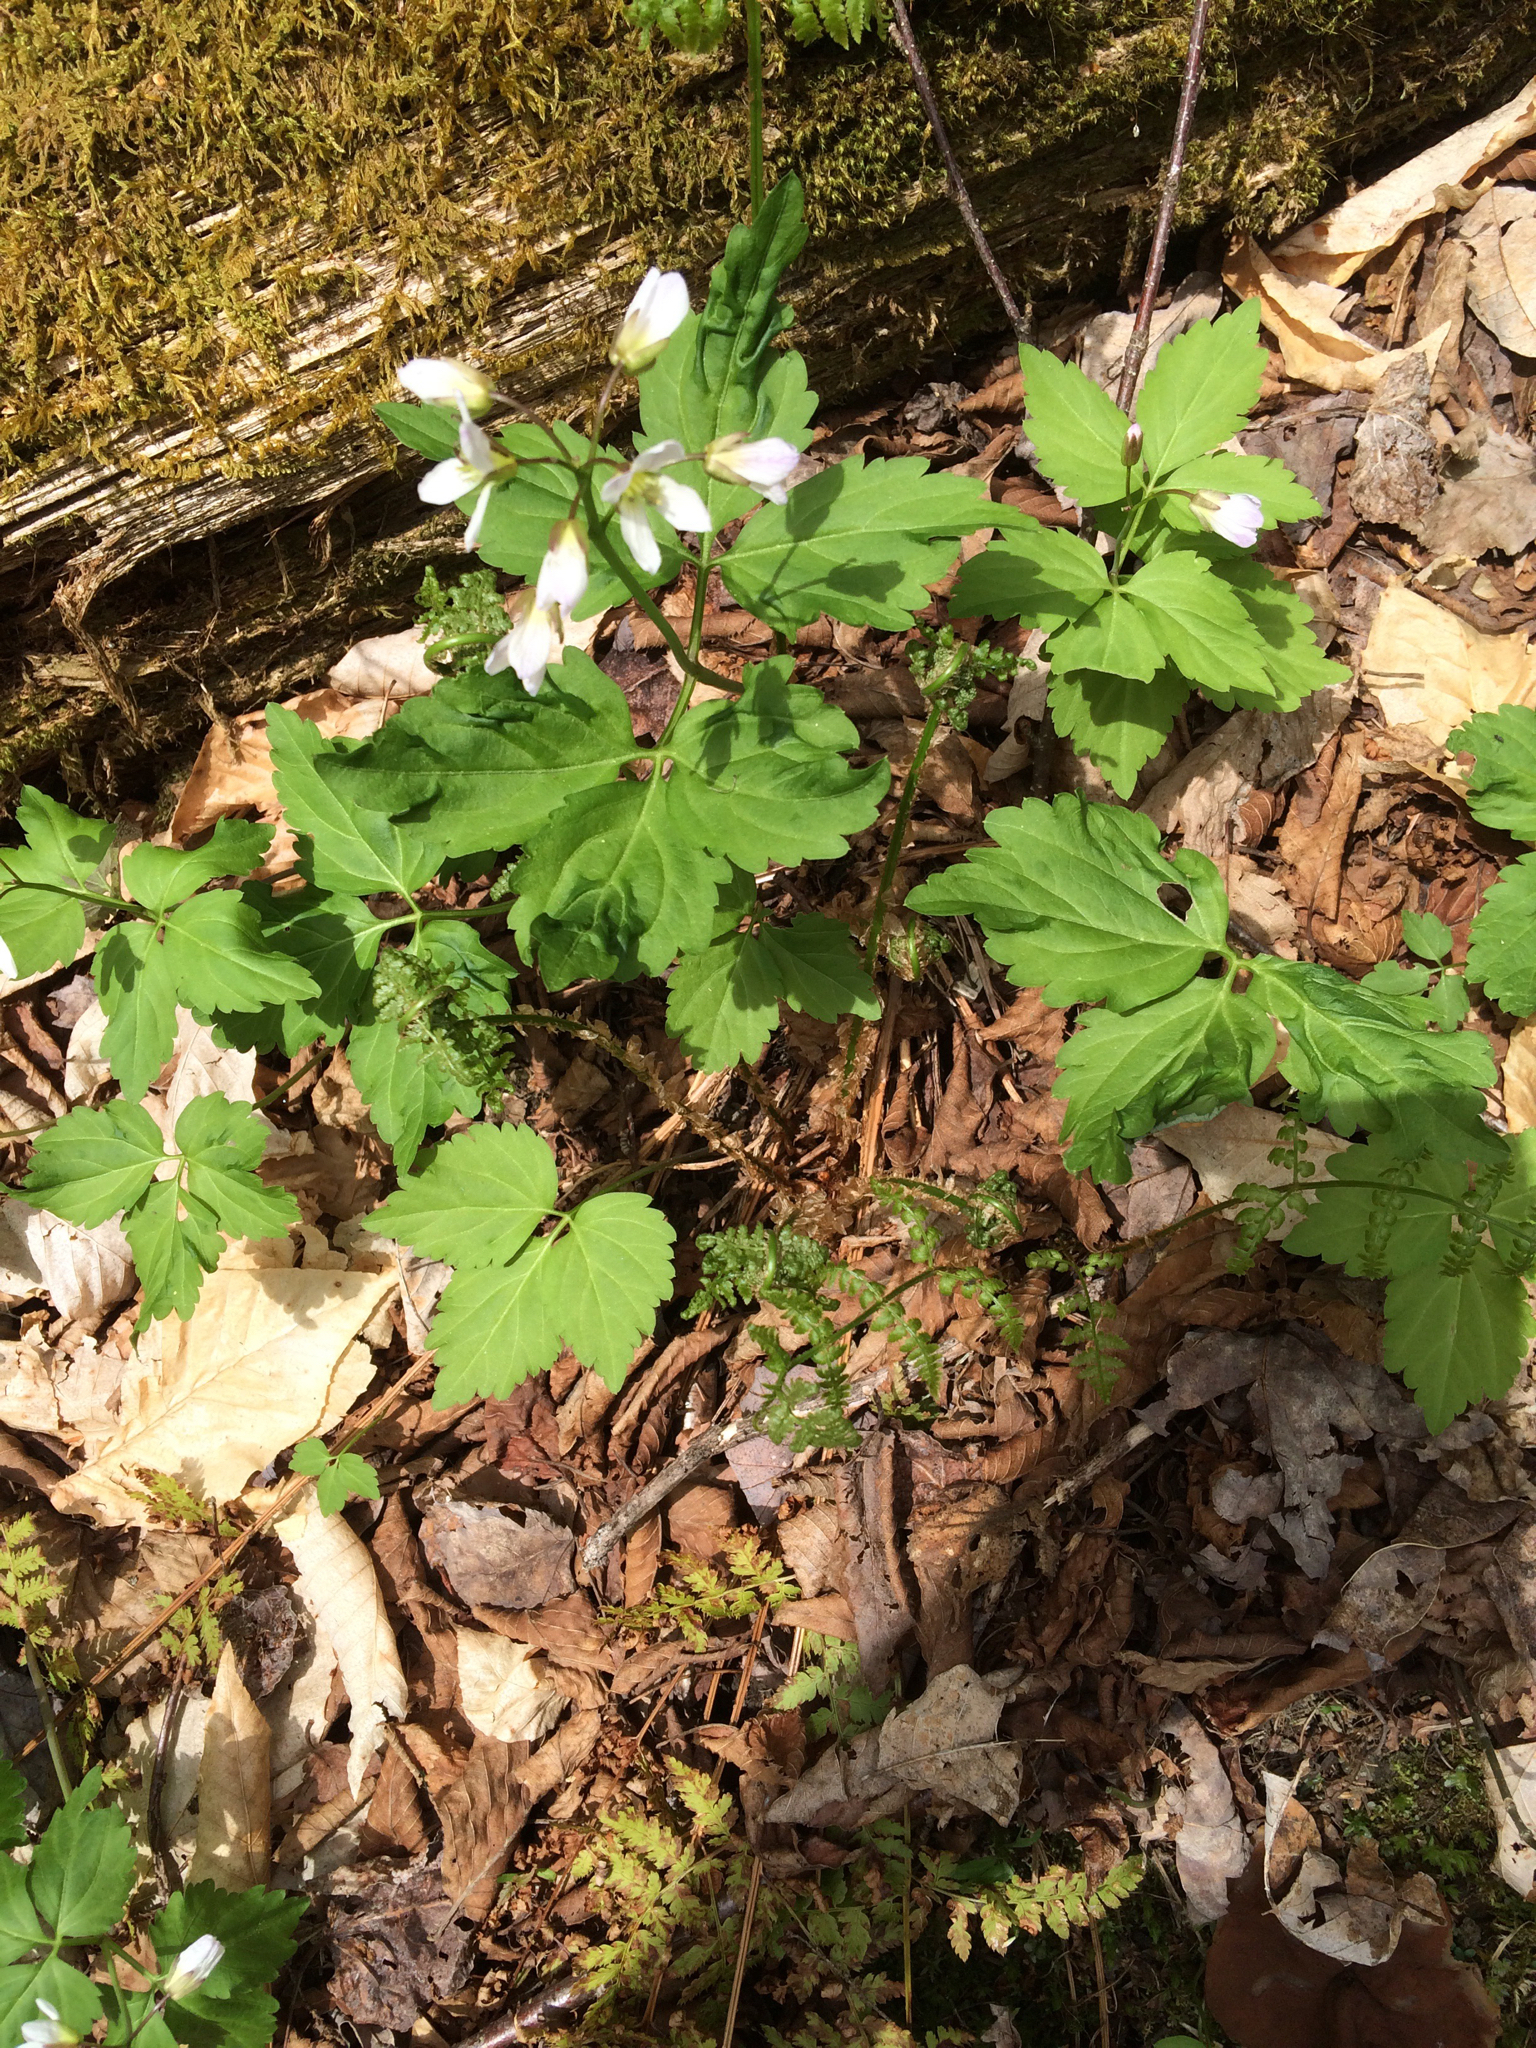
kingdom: Plantae
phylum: Tracheophyta
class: Magnoliopsida
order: Brassicales
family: Brassicaceae
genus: Cardamine
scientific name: Cardamine diphylla
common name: Broad-leaved toothwort
